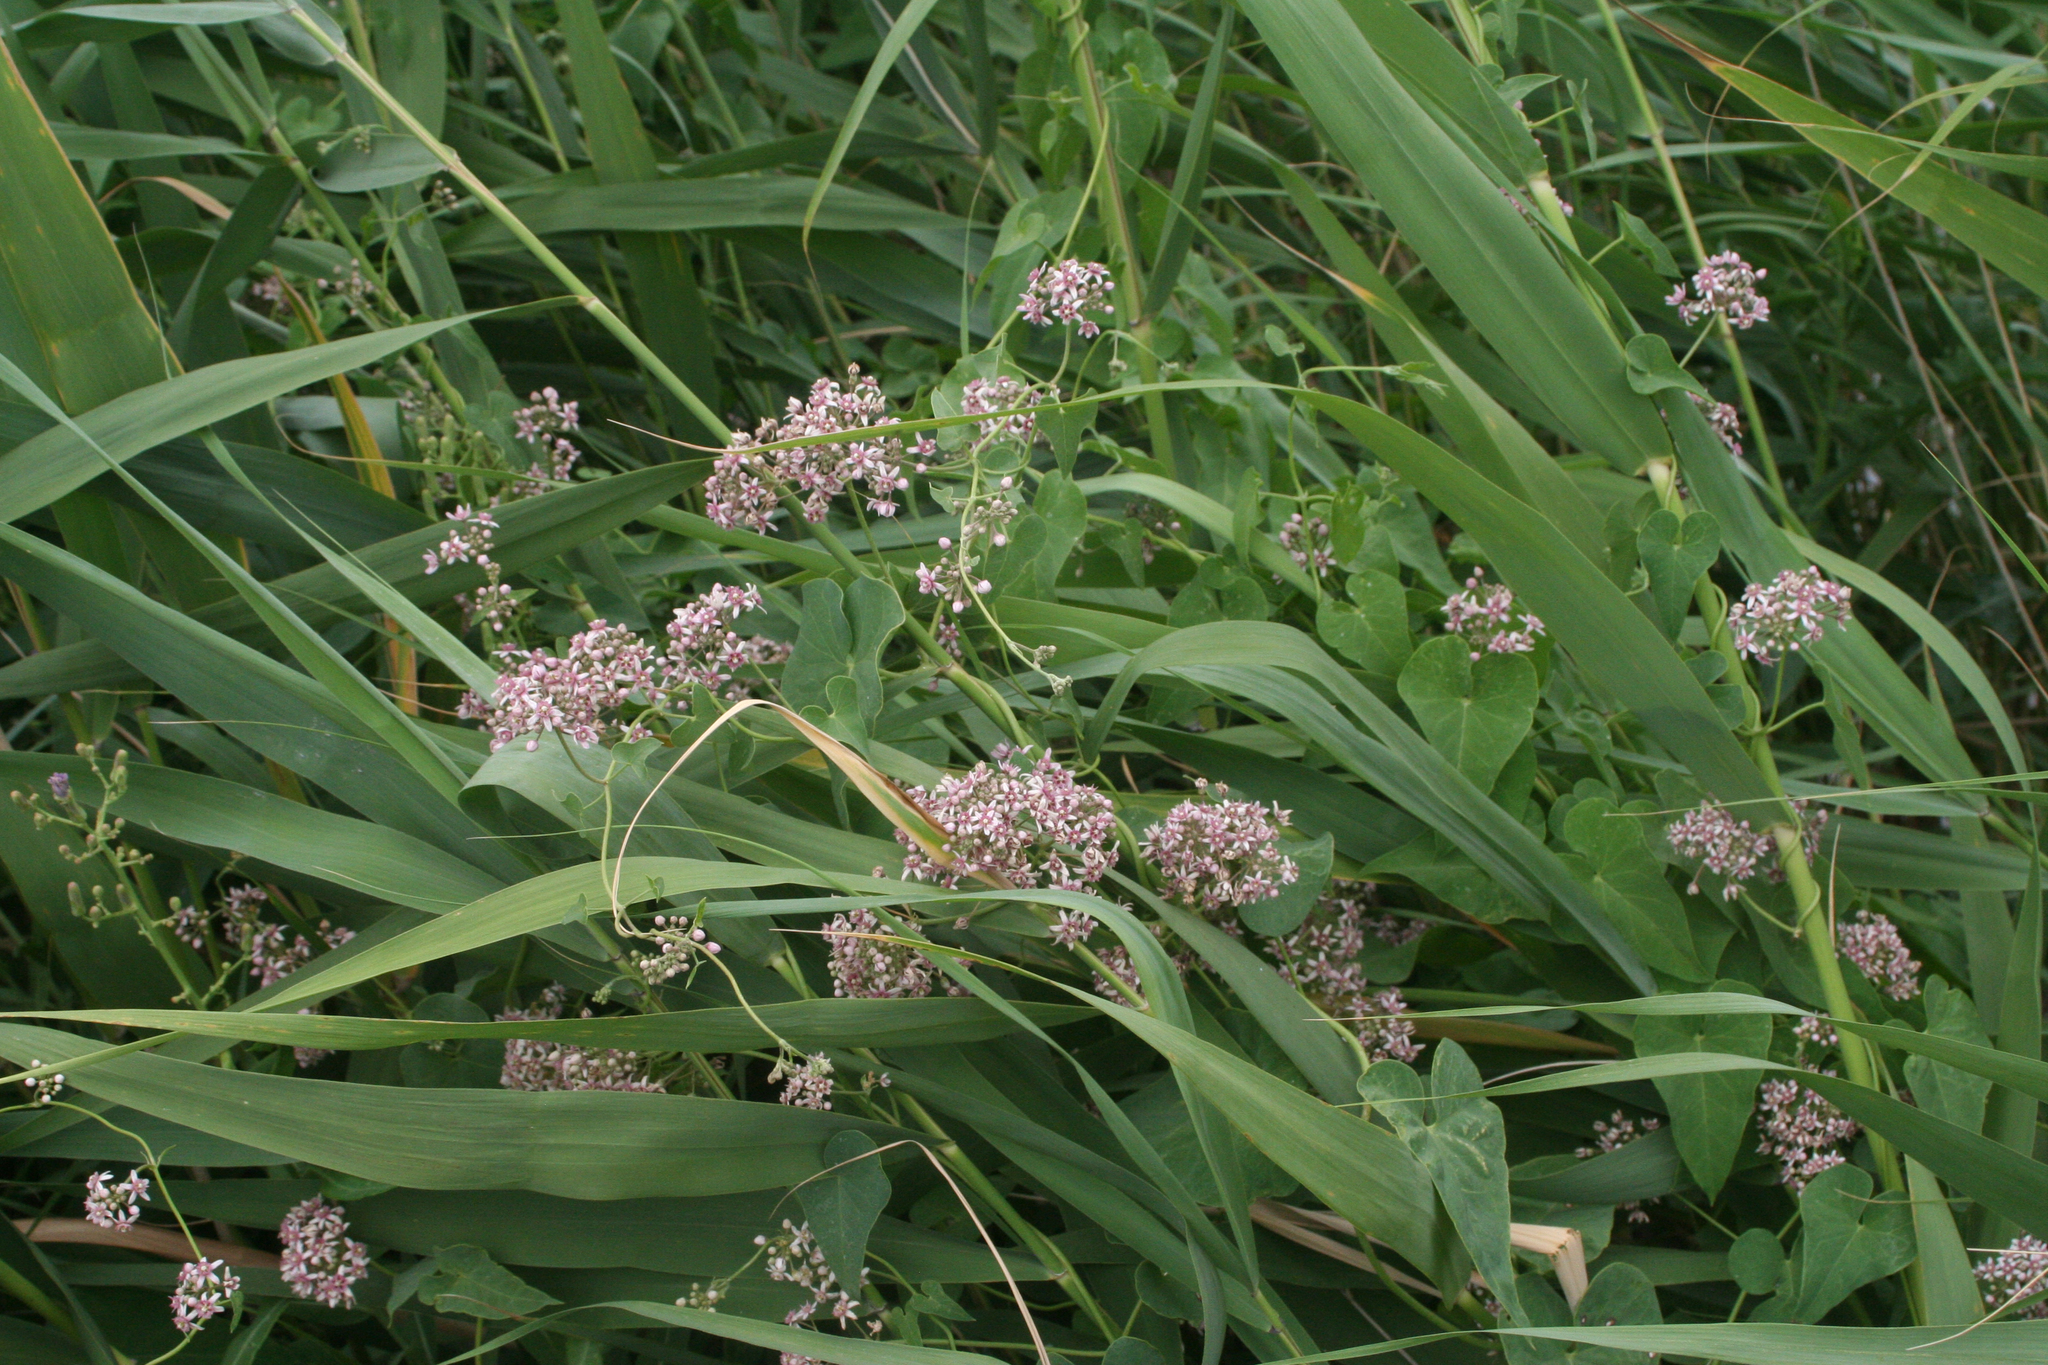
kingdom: Plantae
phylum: Tracheophyta
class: Magnoliopsida
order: Gentianales
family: Apocynaceae
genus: Cynanchum
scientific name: Cynanchum acutum
